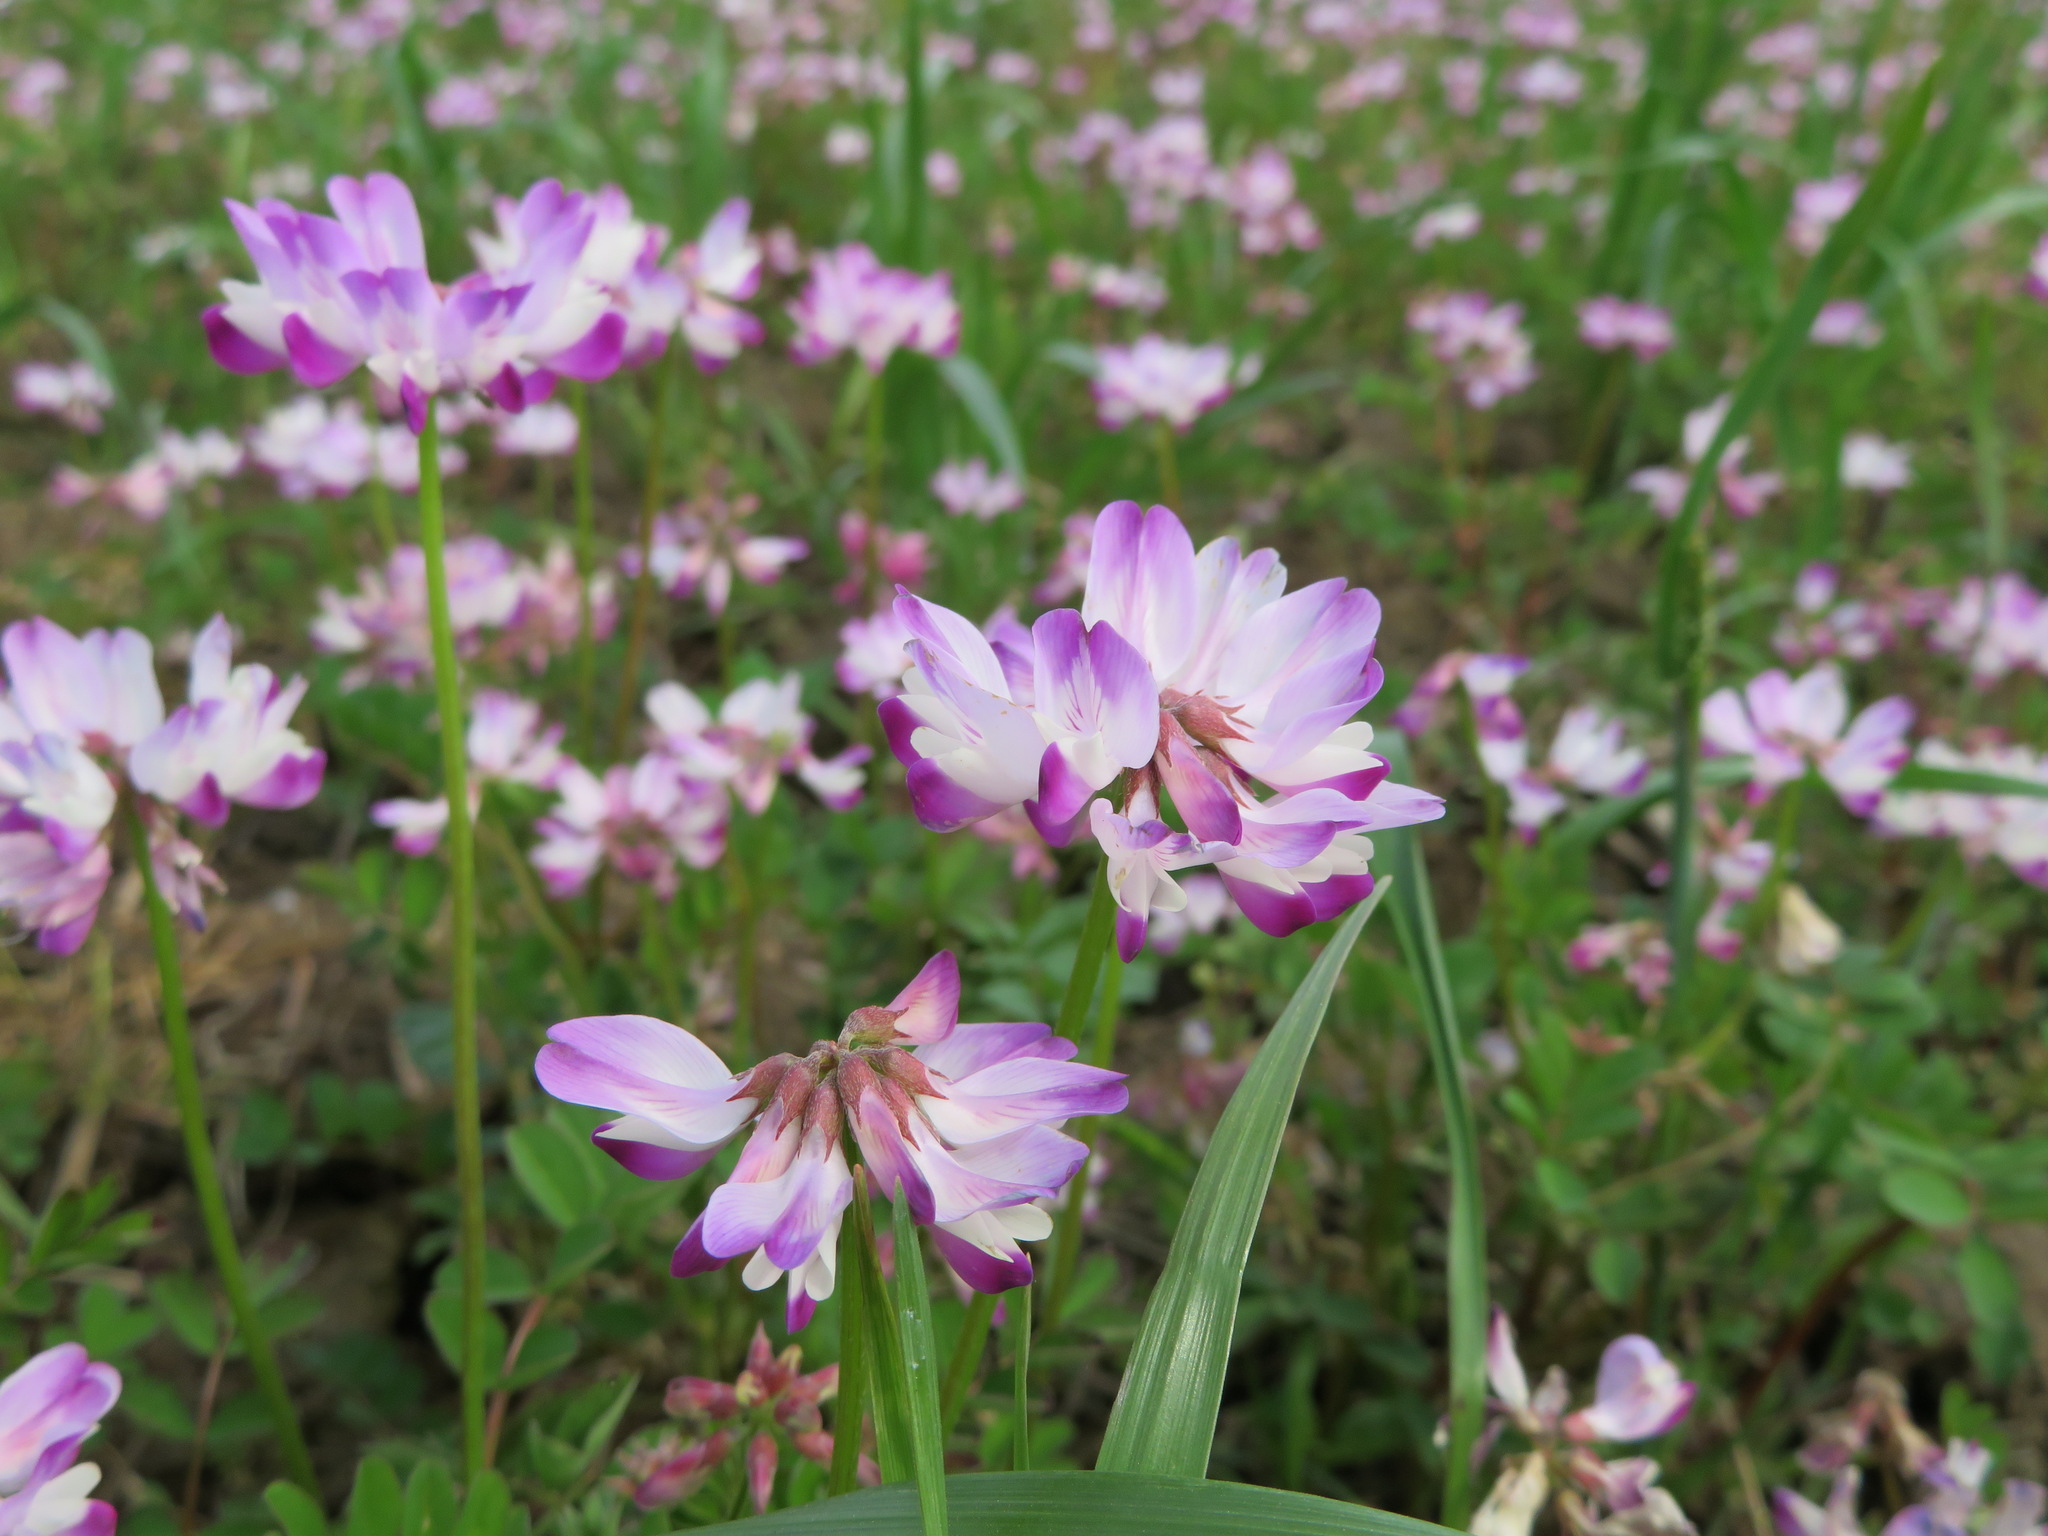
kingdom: Plantae
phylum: Tracheophyta
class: Magnoliopsida
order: Fabales
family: Fabaceae
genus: Astragalus
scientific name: Astragalus sinicus
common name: Chinese milk-vetch
